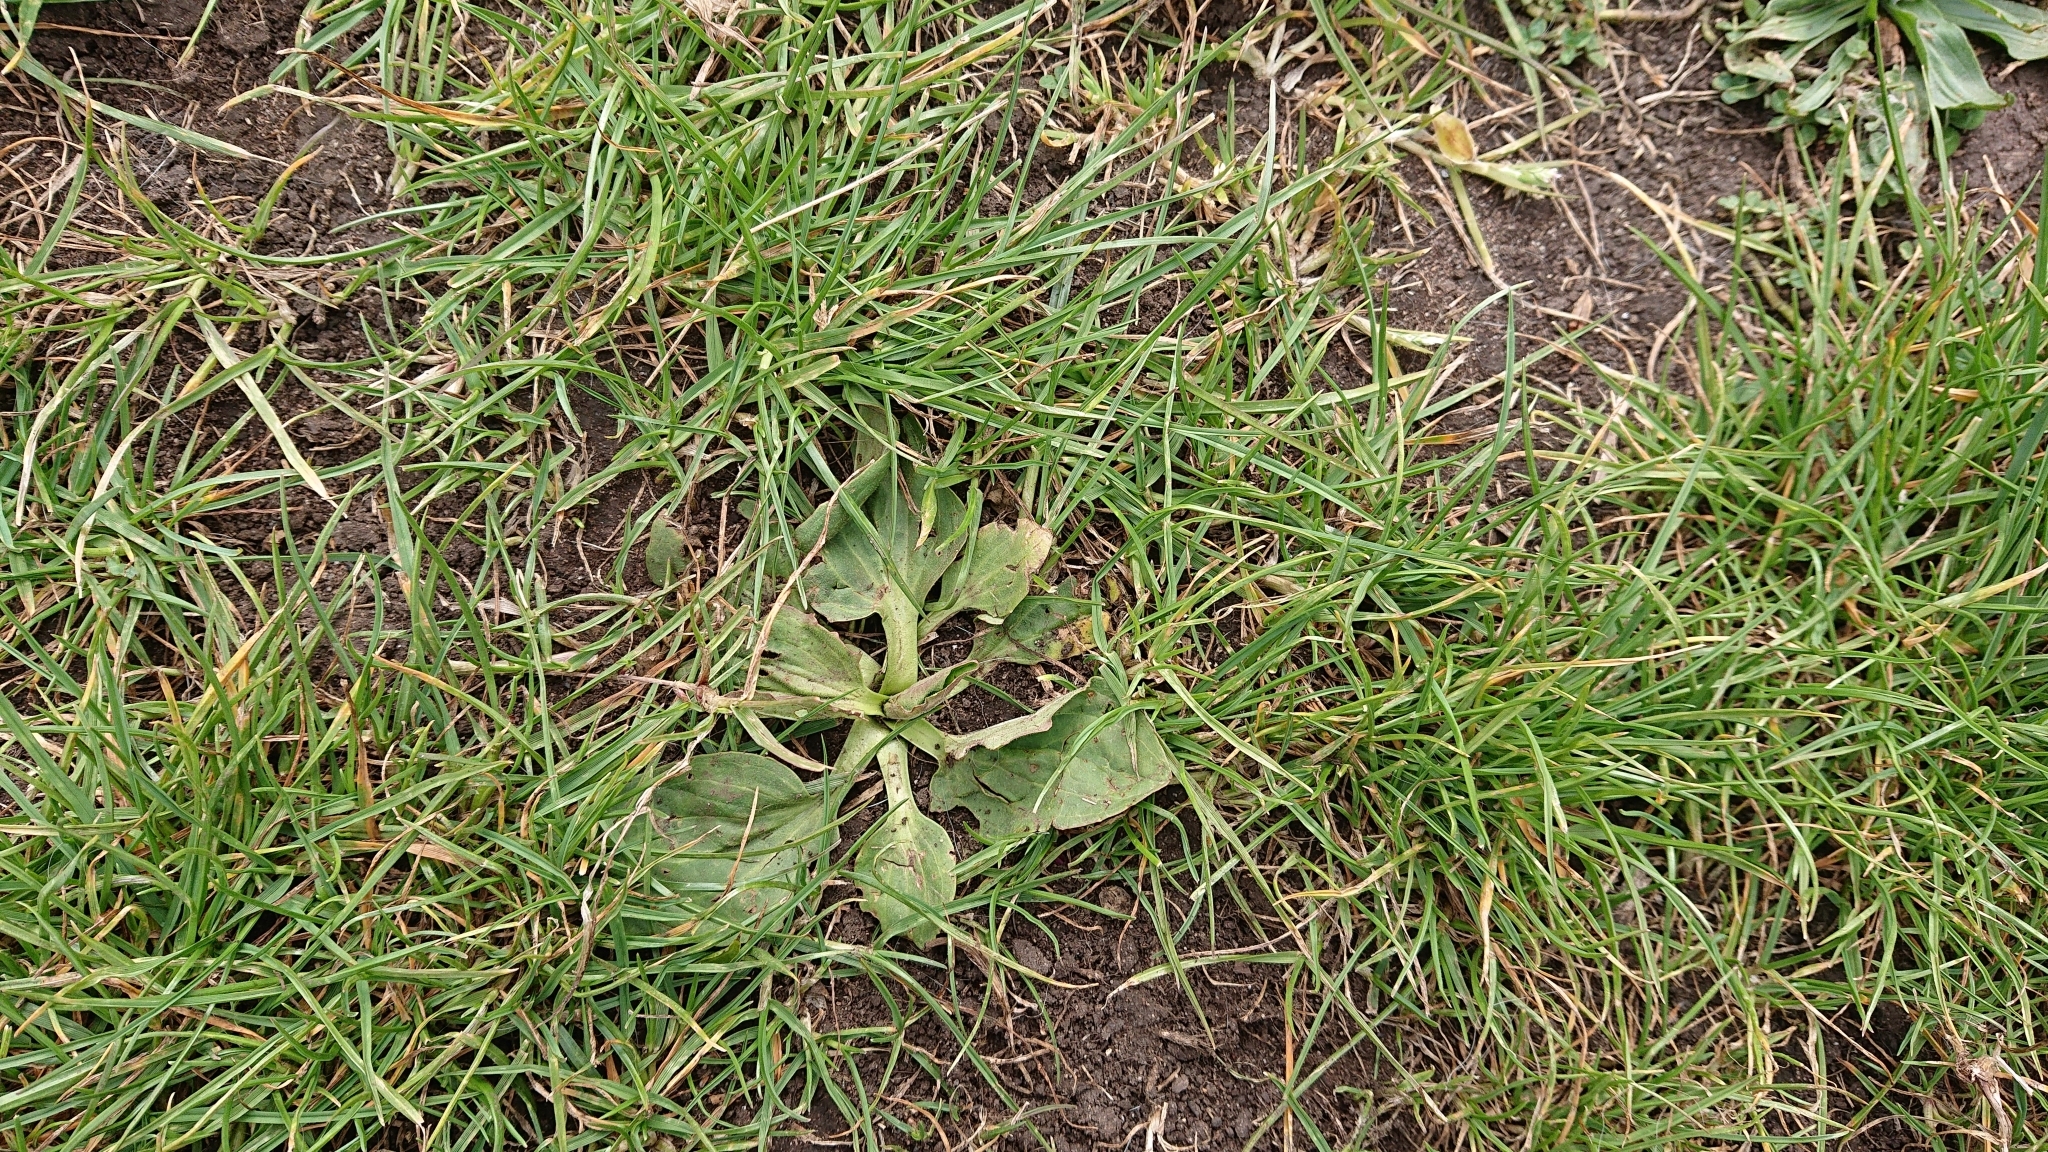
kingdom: Plantae
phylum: Tracheophyta
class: Magnoliopsida
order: Lamiales
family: Plantaginaceae
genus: Plantago
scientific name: Plantago major
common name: Common plantain
